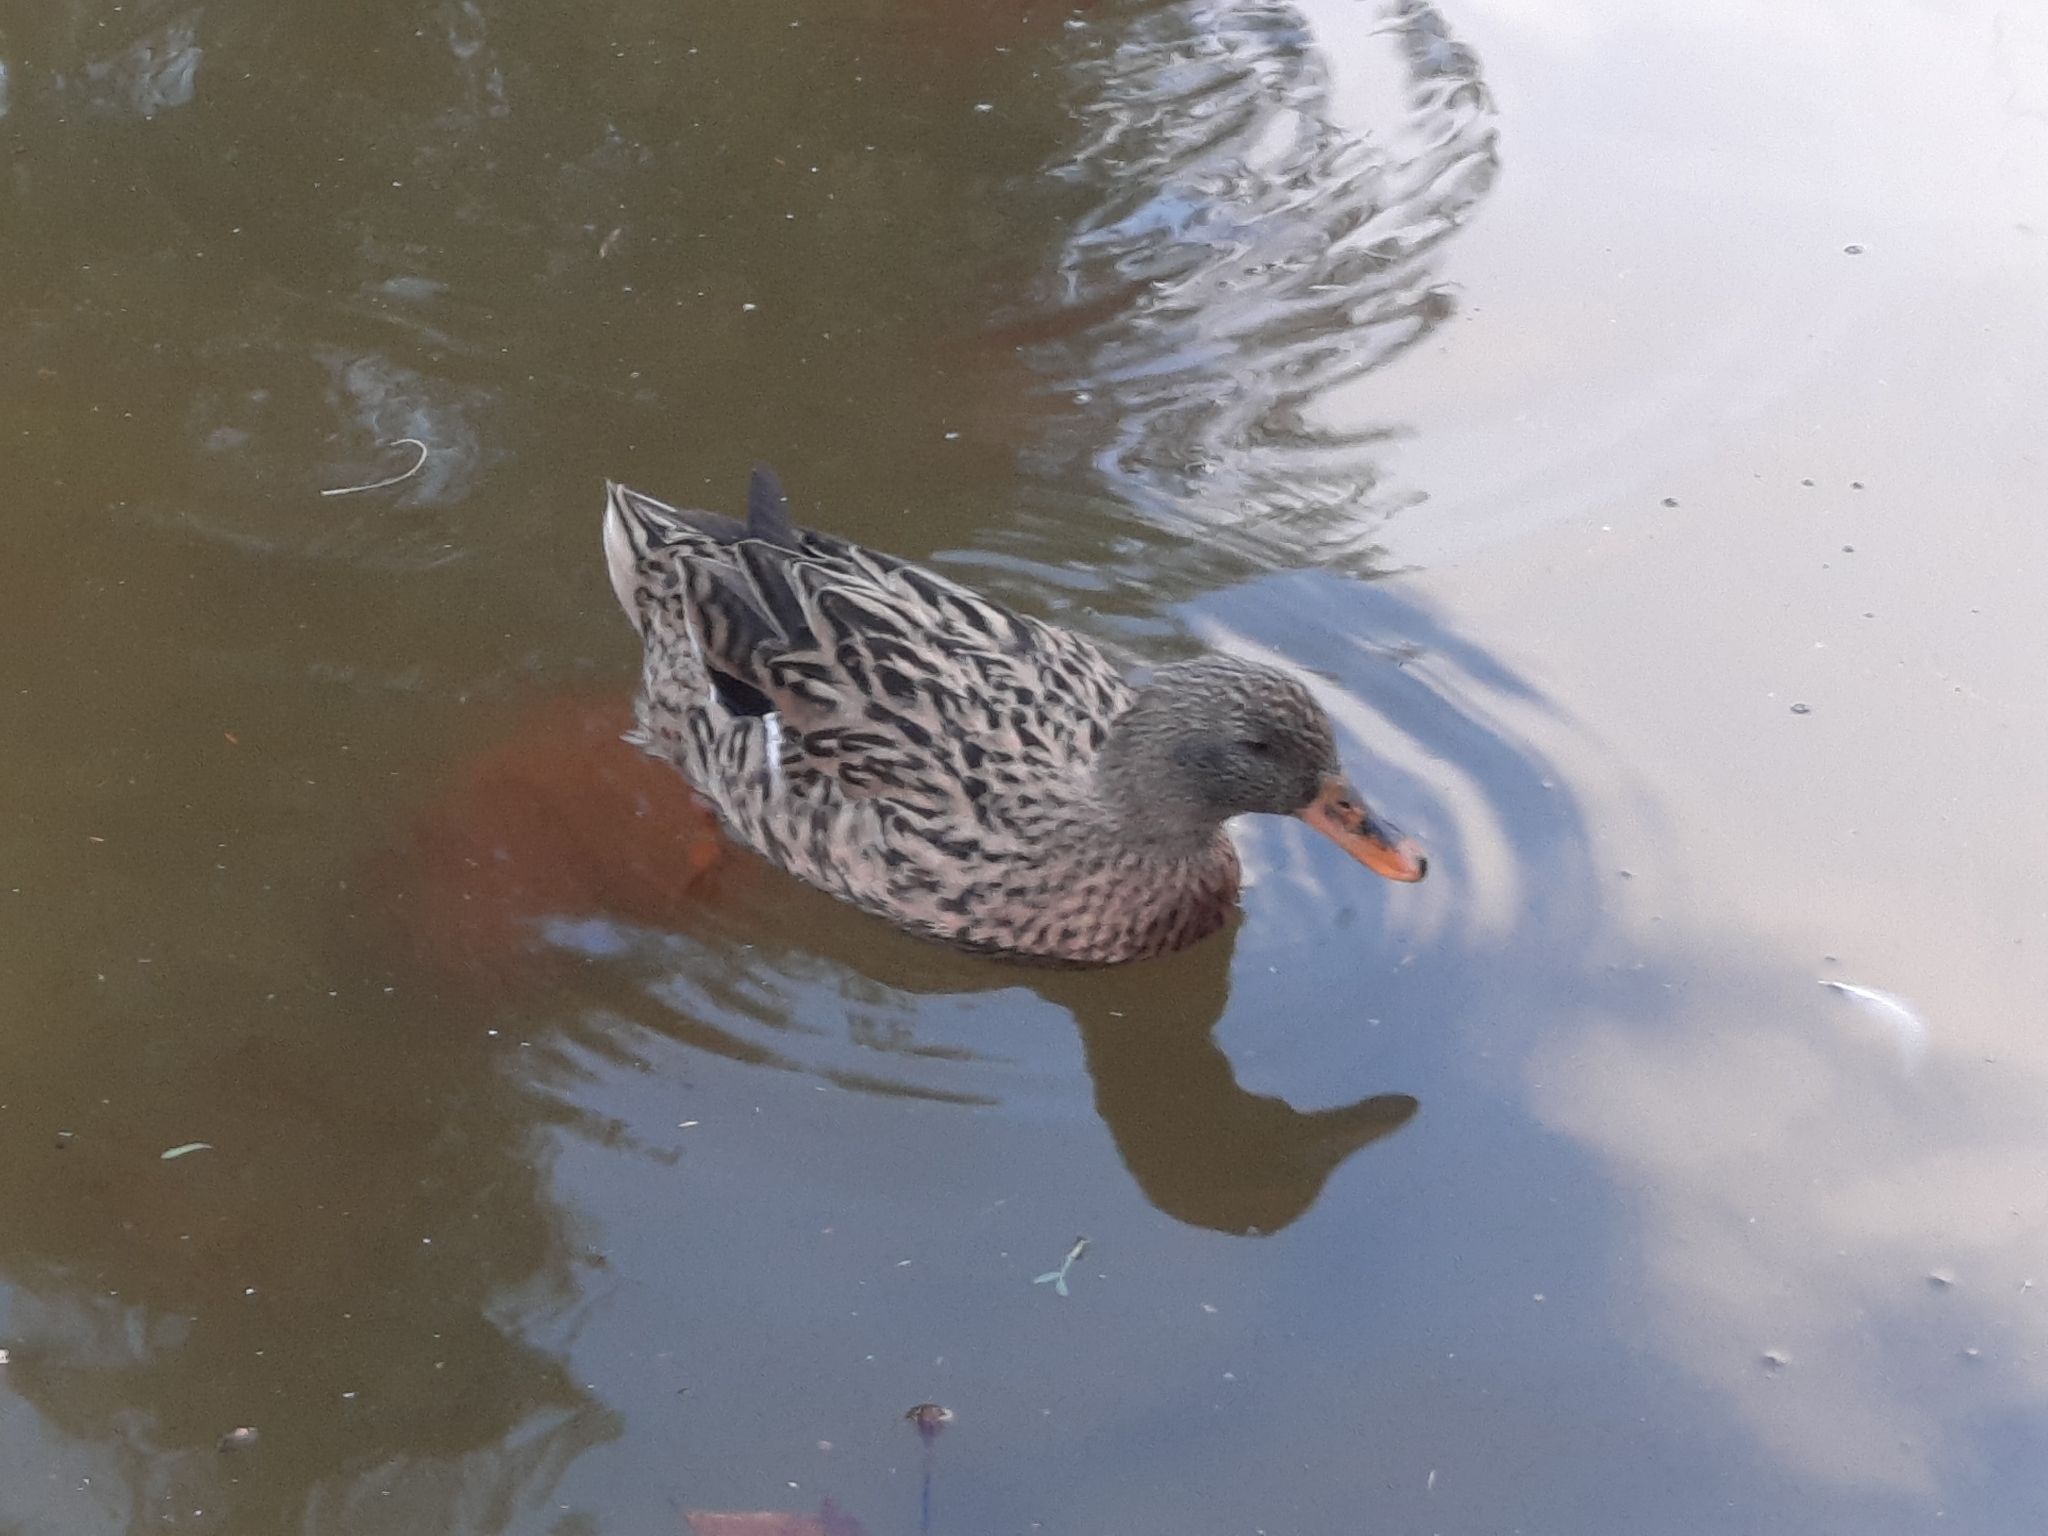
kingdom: Animalia
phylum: Chordata
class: Aves
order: Anseriformes
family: Anatidae
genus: Anas
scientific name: Anas platyrhynchos
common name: Mallard
